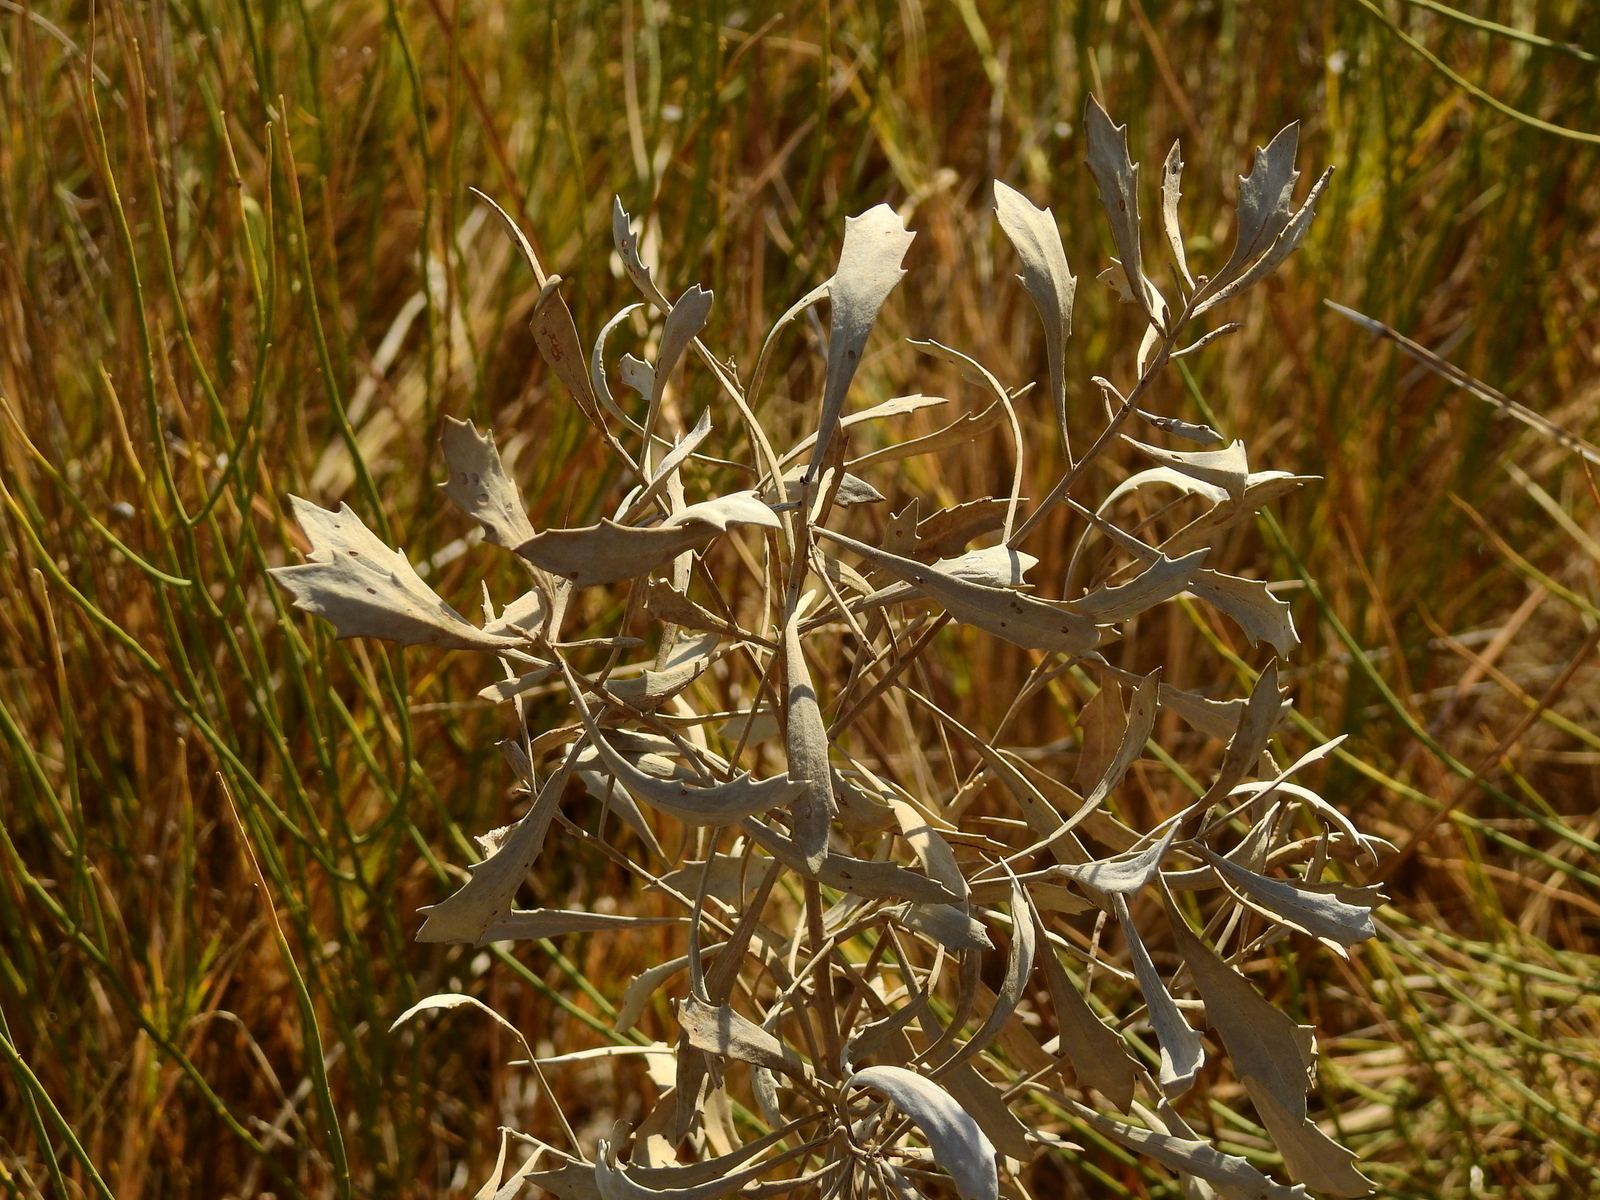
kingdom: Plantae
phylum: Tracheophyta
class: Magnoliopsida
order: Asterales
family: Asteraceae
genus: Tessaria
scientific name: Tessaria absinthioides
